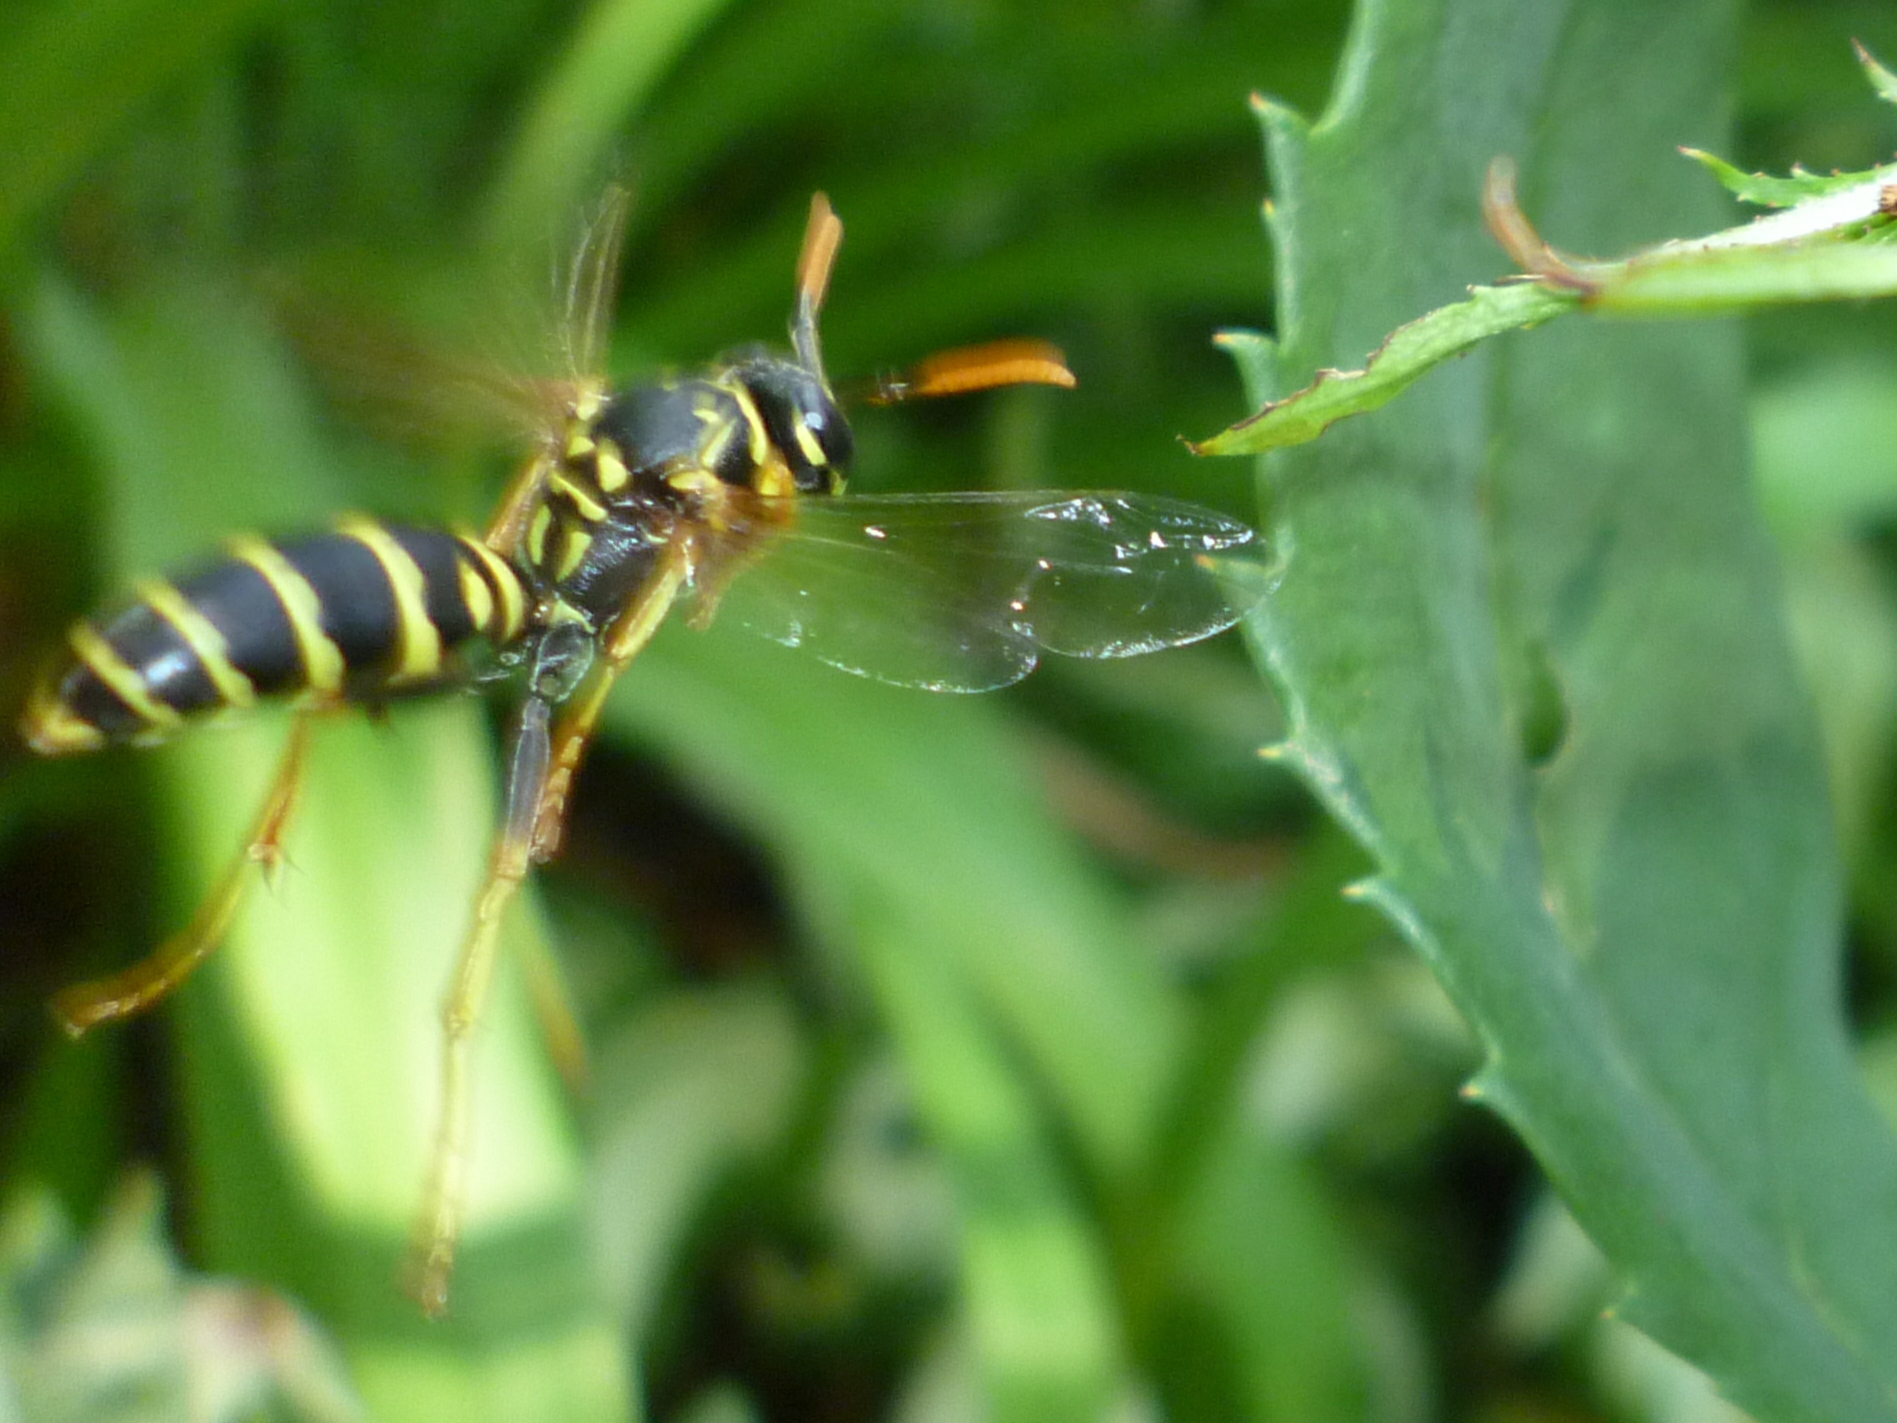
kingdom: Animalia
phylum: Arthropoda
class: Insecta
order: Hymenoptera
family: Eumenidae
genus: Polistes
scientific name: Polistes dominula
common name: Paper wasp
